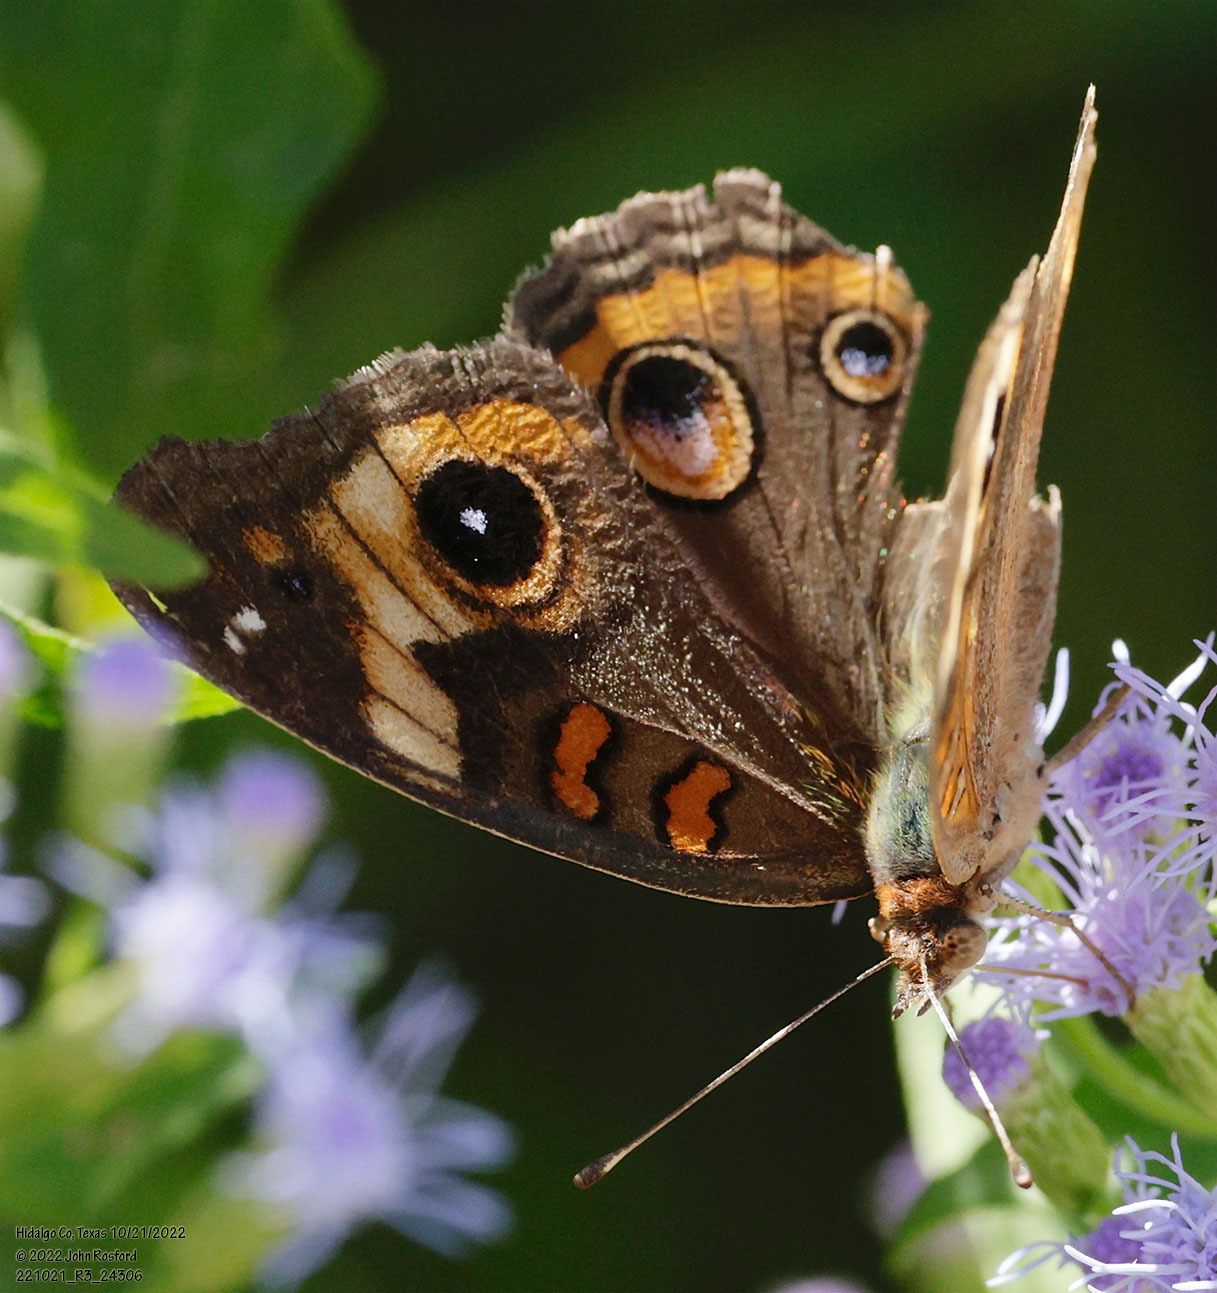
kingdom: Animalia
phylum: Arthropoda
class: Insecta
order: Lepidoptera
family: Nymphalidae
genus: Junonia
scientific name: Junonia coenia
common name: Common buckeye
